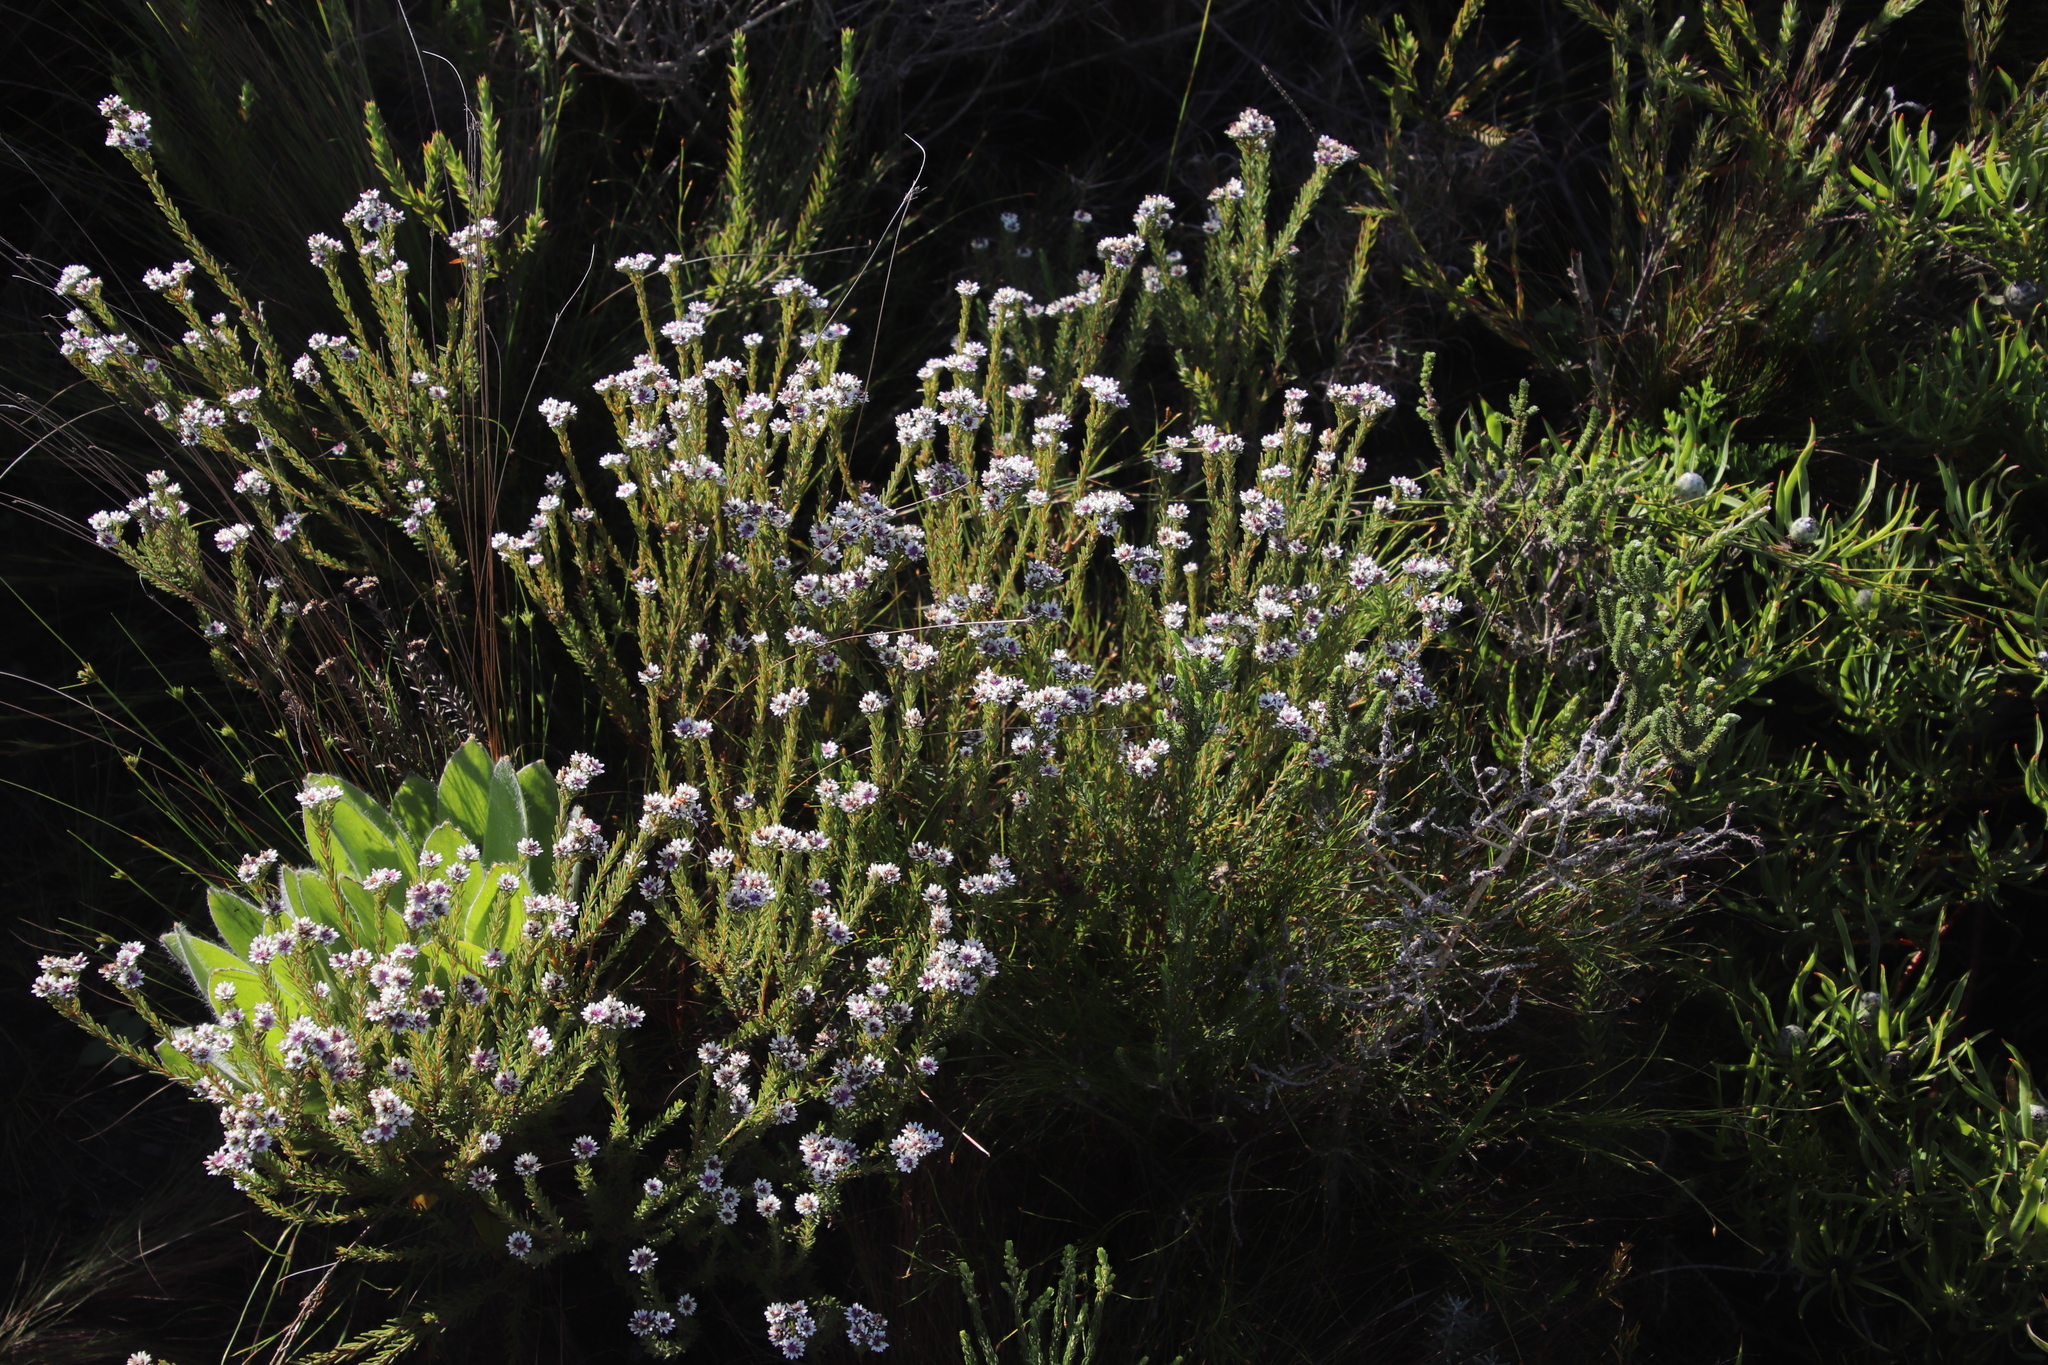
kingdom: Plantae
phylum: Tracheophyta
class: Magnoliopsida
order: Bruniales
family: Bruniaceae
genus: Staavia
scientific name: Staavia radiata
